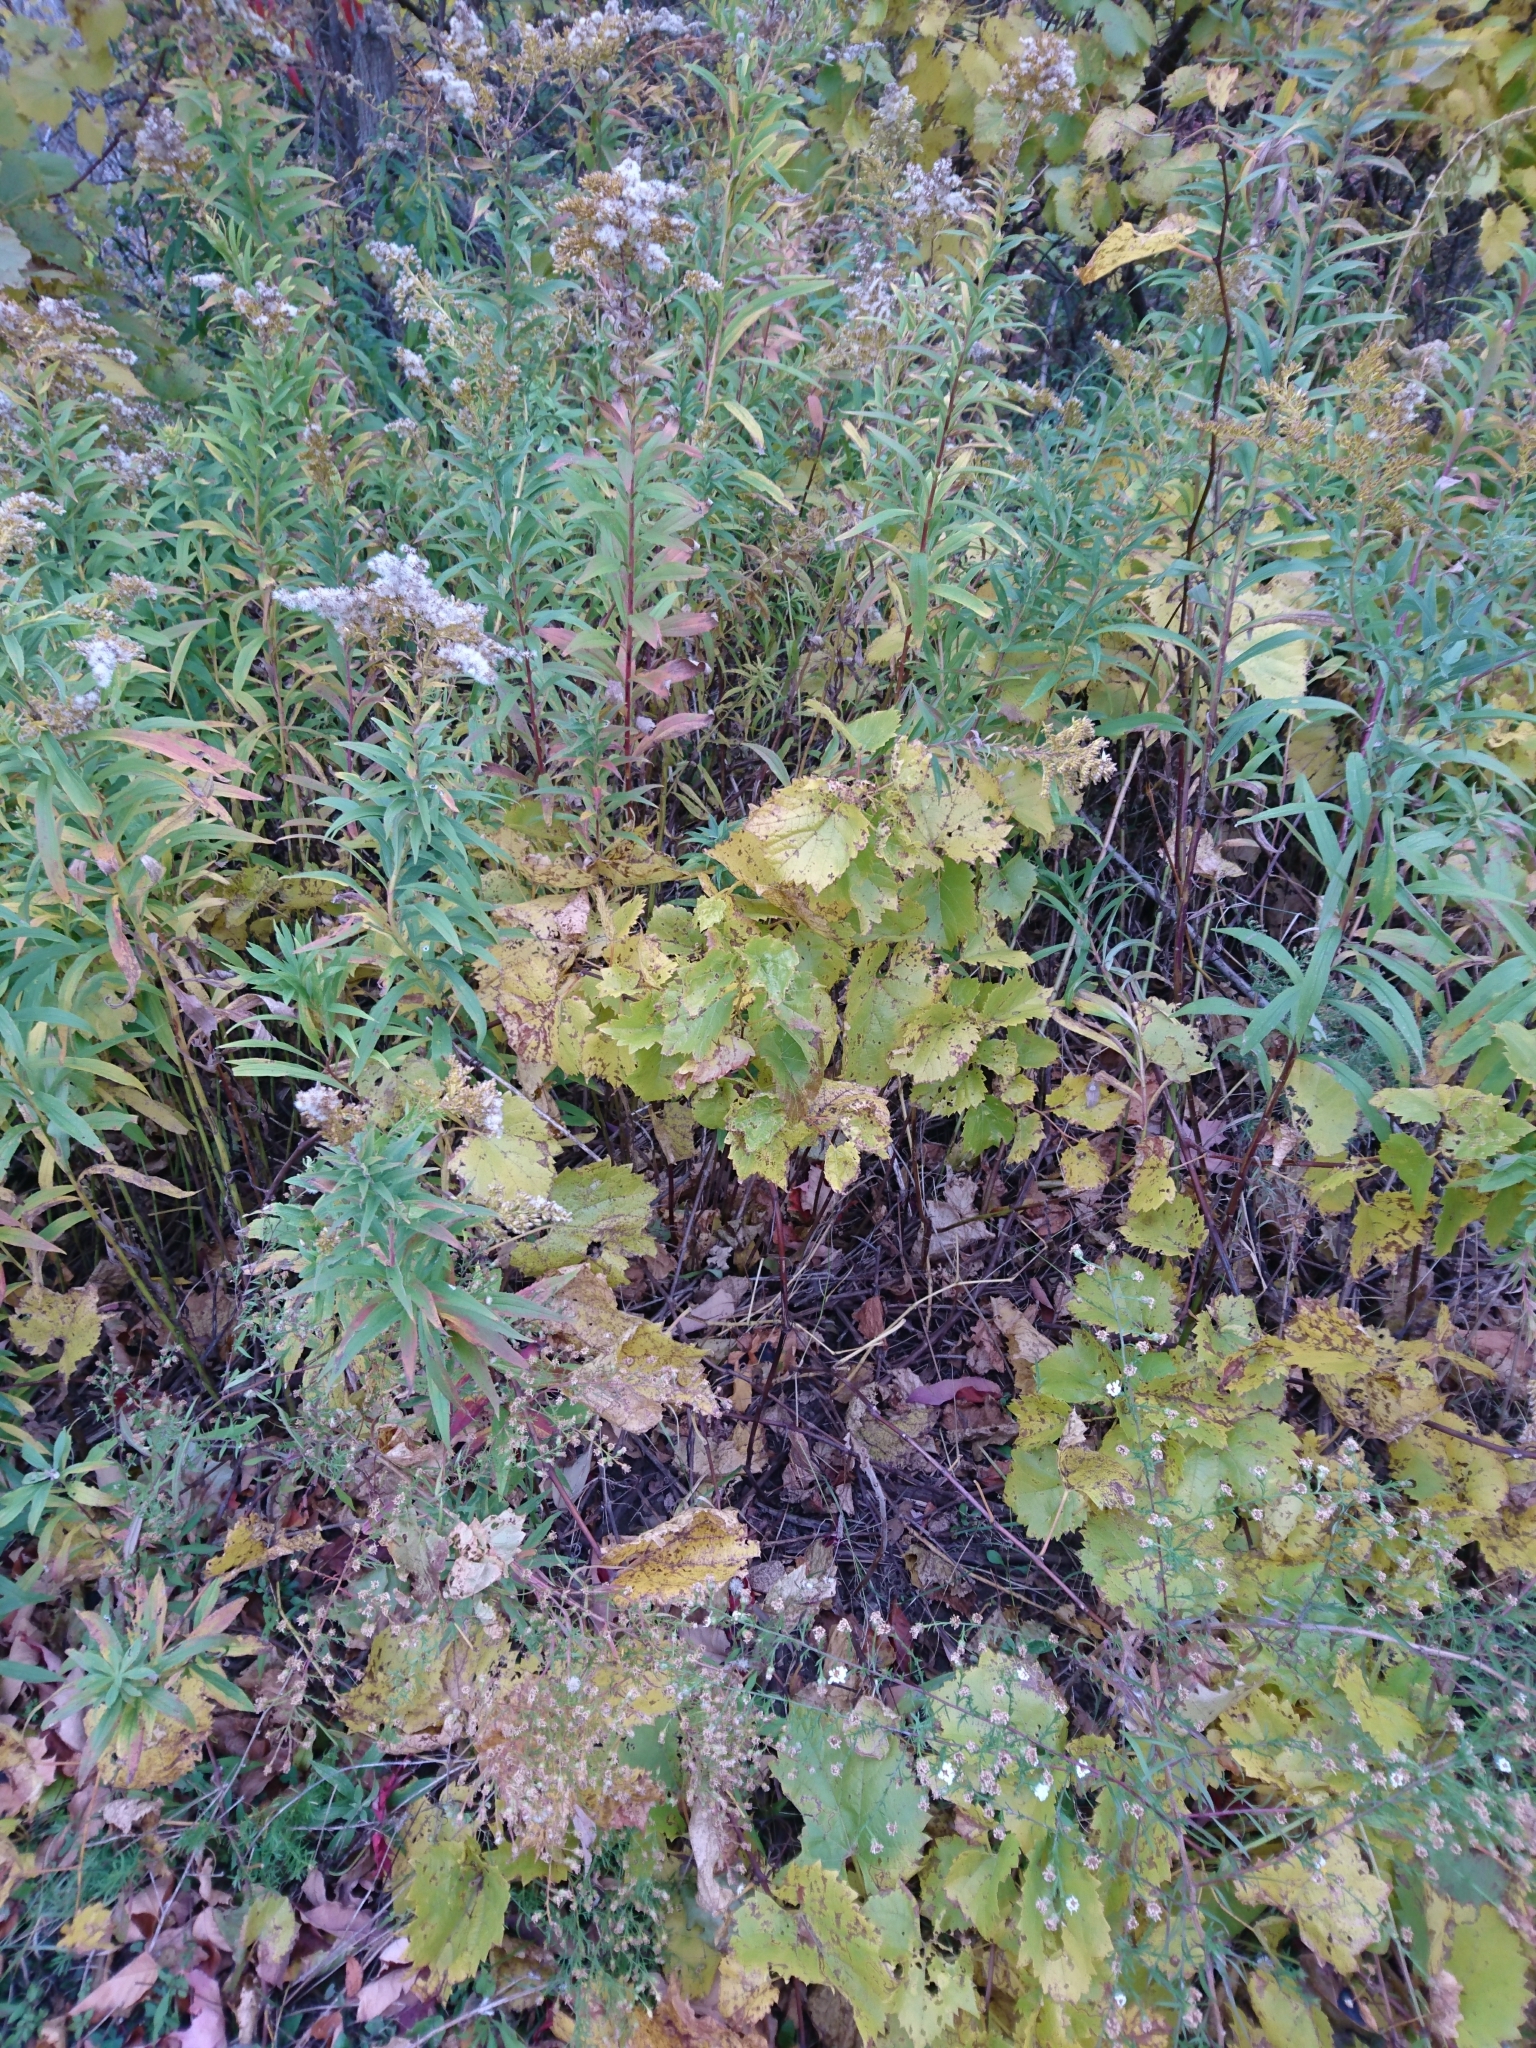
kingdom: Plantae
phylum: Tracheophyta
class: Magnoliopsida
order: Vitales
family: Vitaceae
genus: Vitis
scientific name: Vitis riparia
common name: Frost grape
